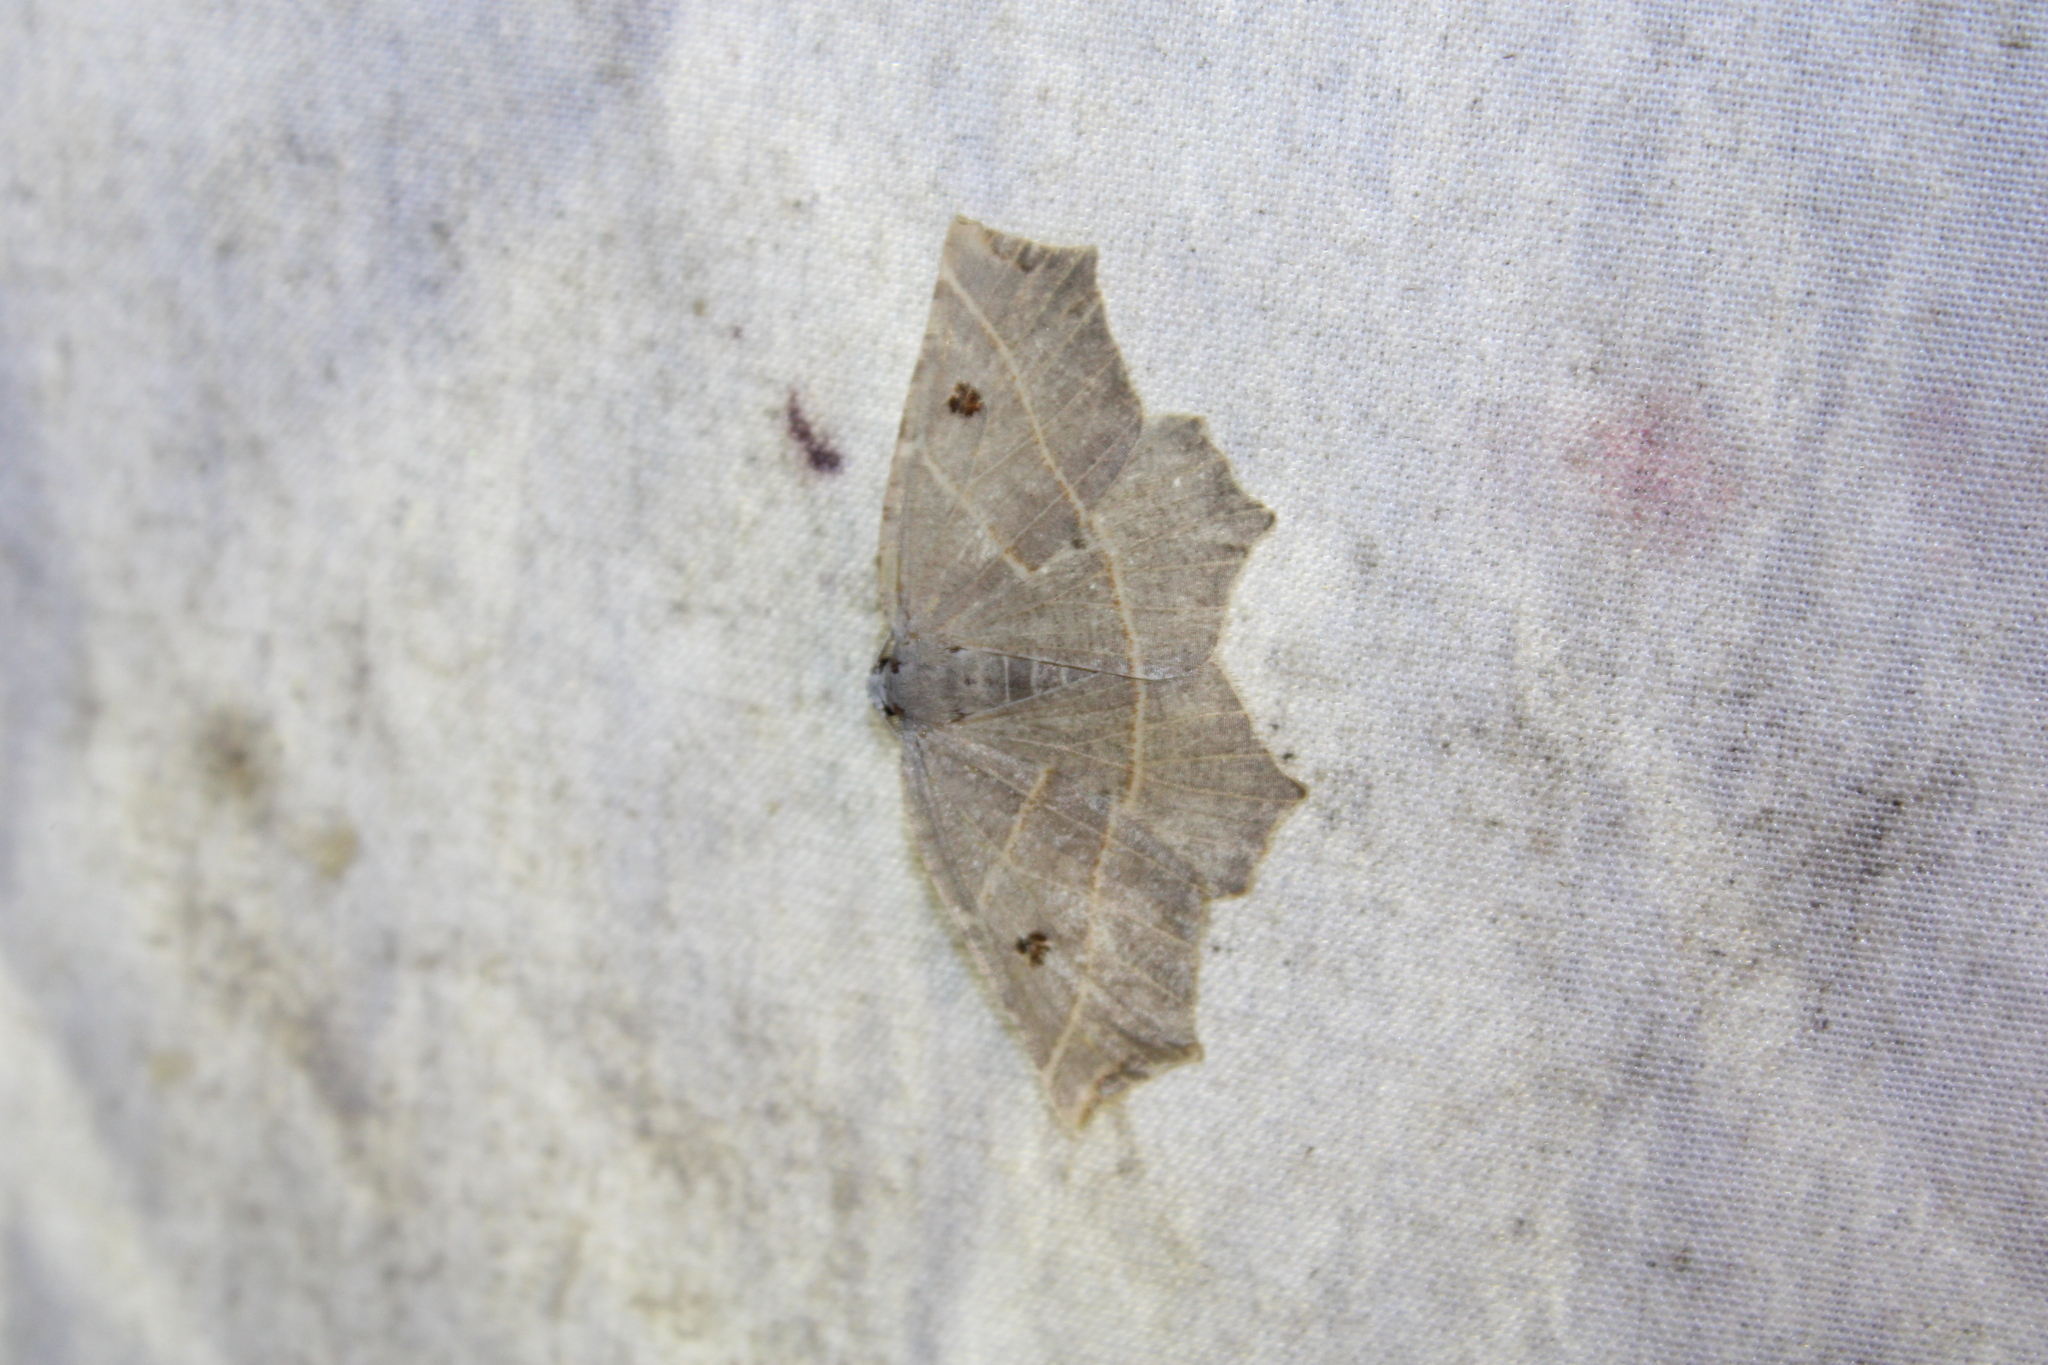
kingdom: Animalia
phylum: Arthropoda
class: Insecta
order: Lepidoptera
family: Geometridae
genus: Metanema
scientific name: Metanema inatomaria
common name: Pale metanema
